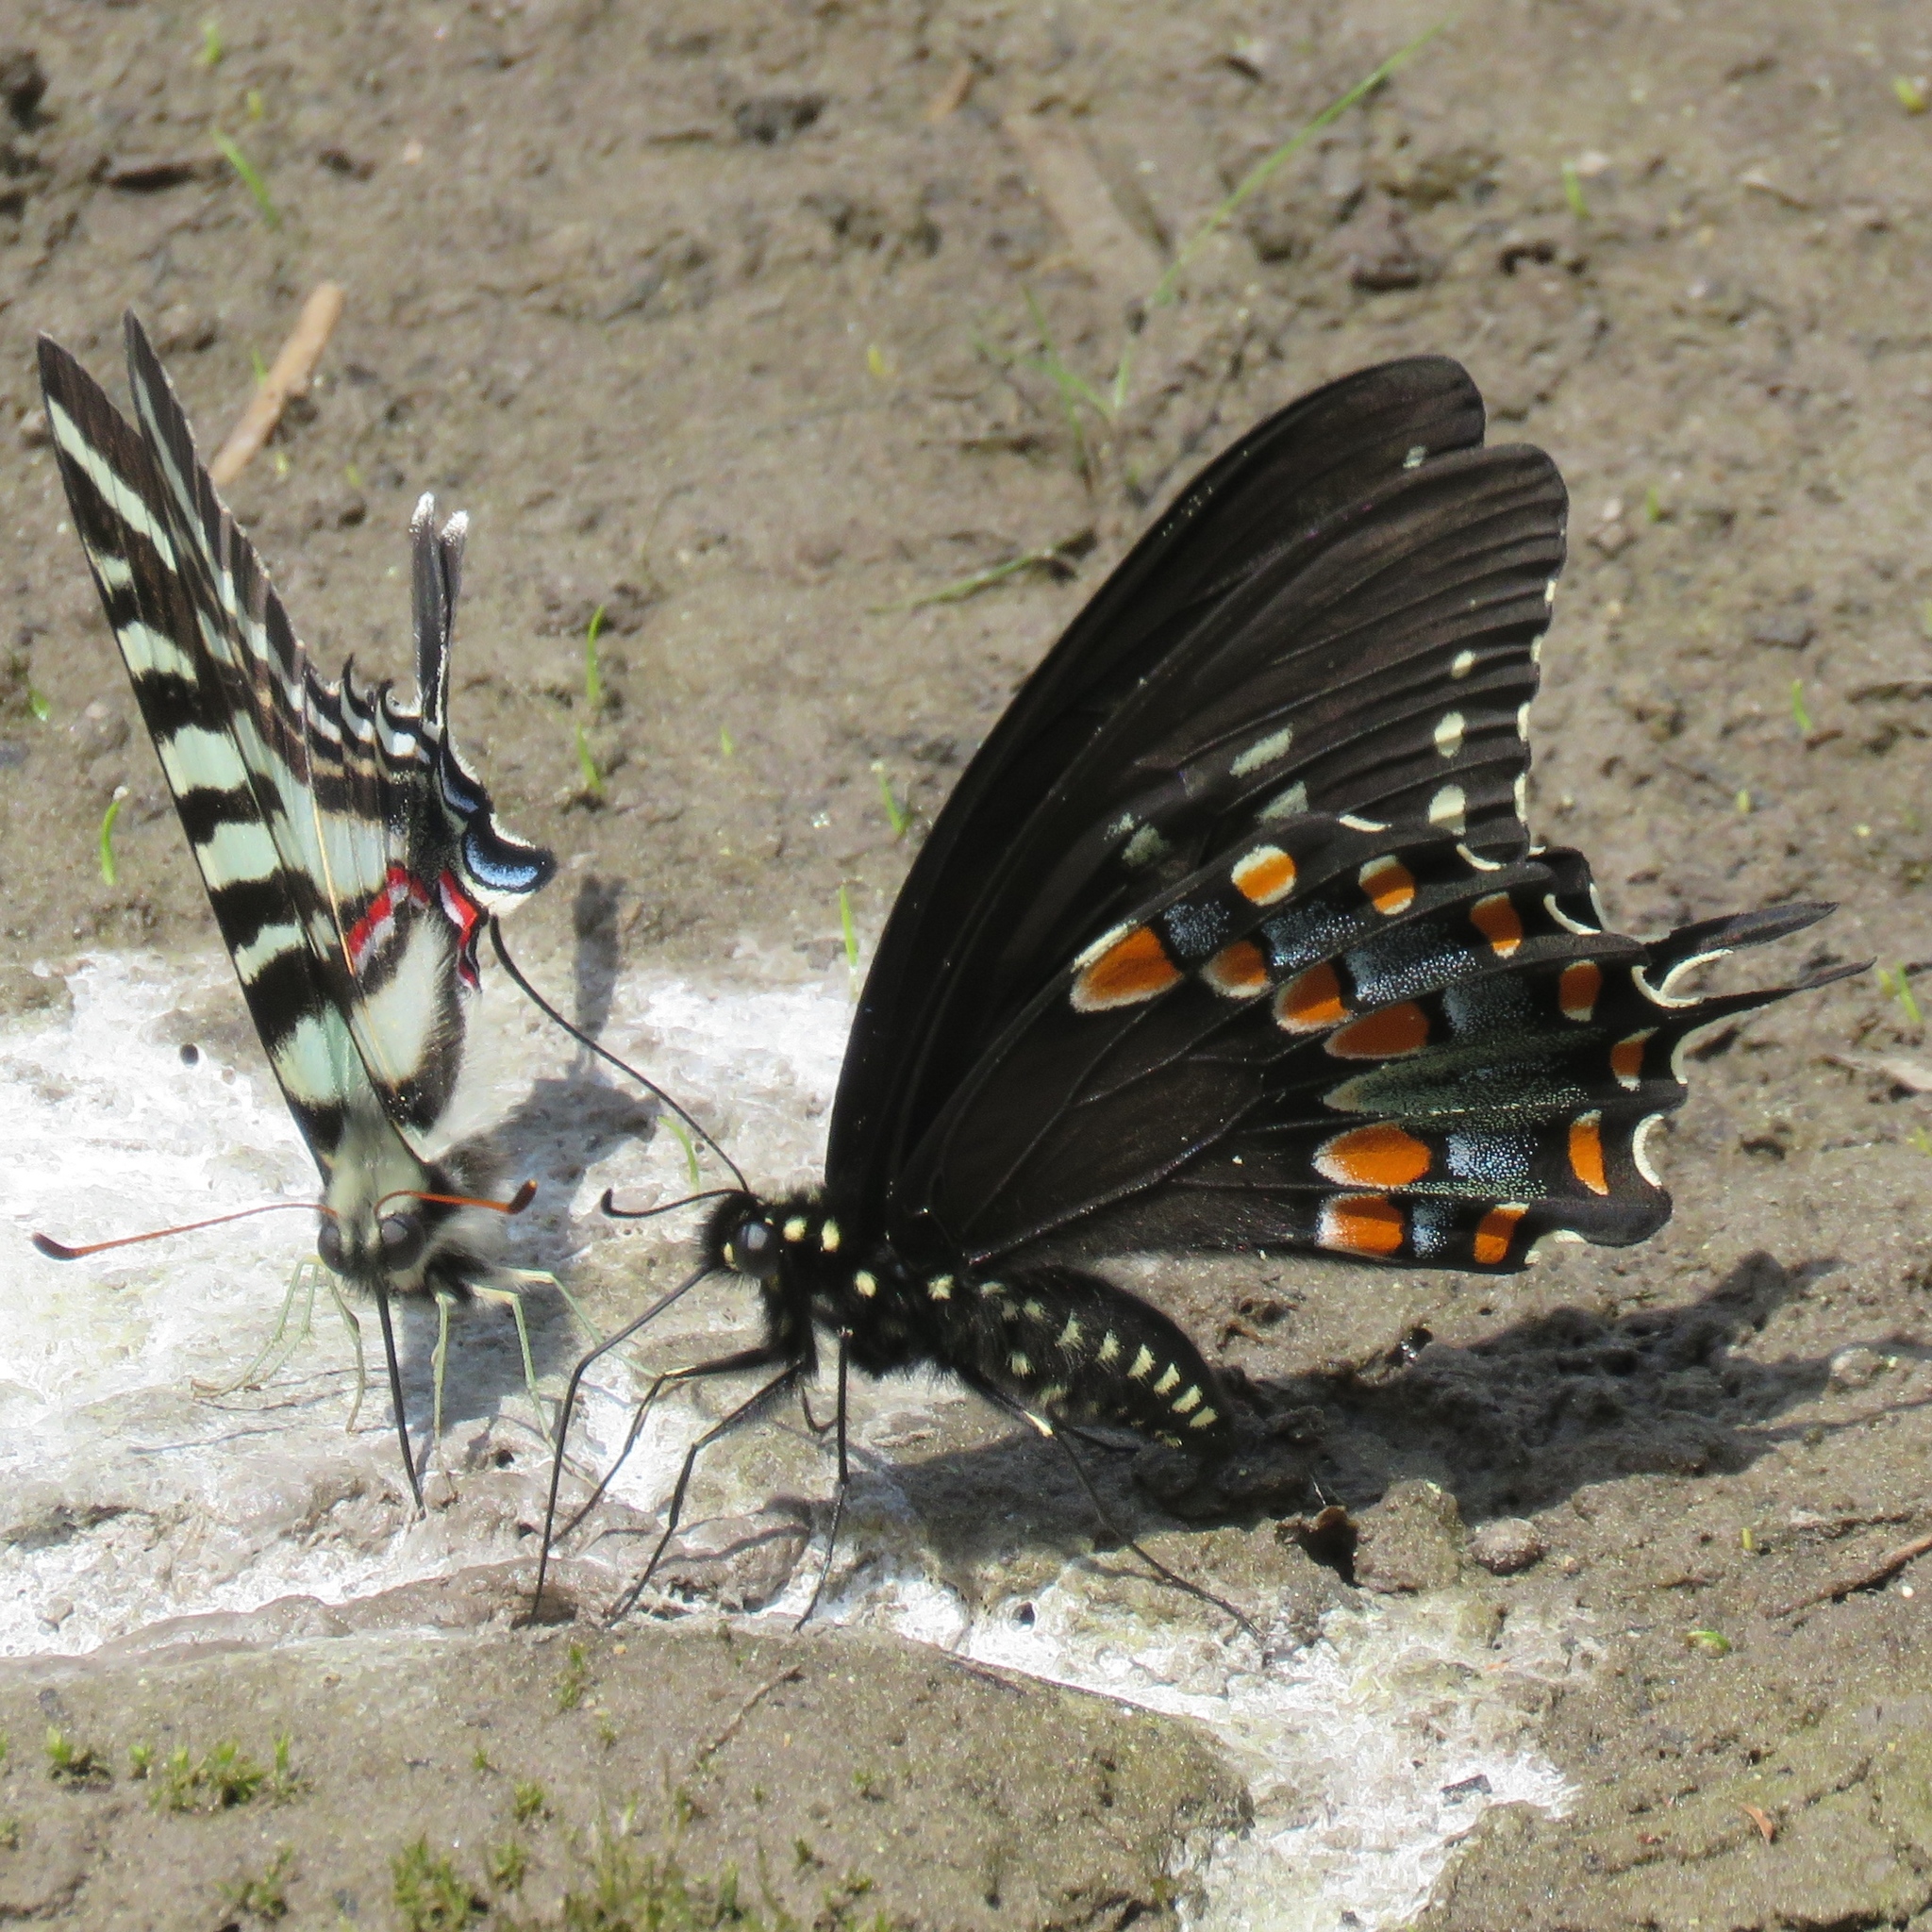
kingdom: Animalia
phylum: Arthropoda
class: Insecta
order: Lepidoptera
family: Papilionidae
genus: Papilio
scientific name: Papilio troilus
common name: Spicebush swallowtail
